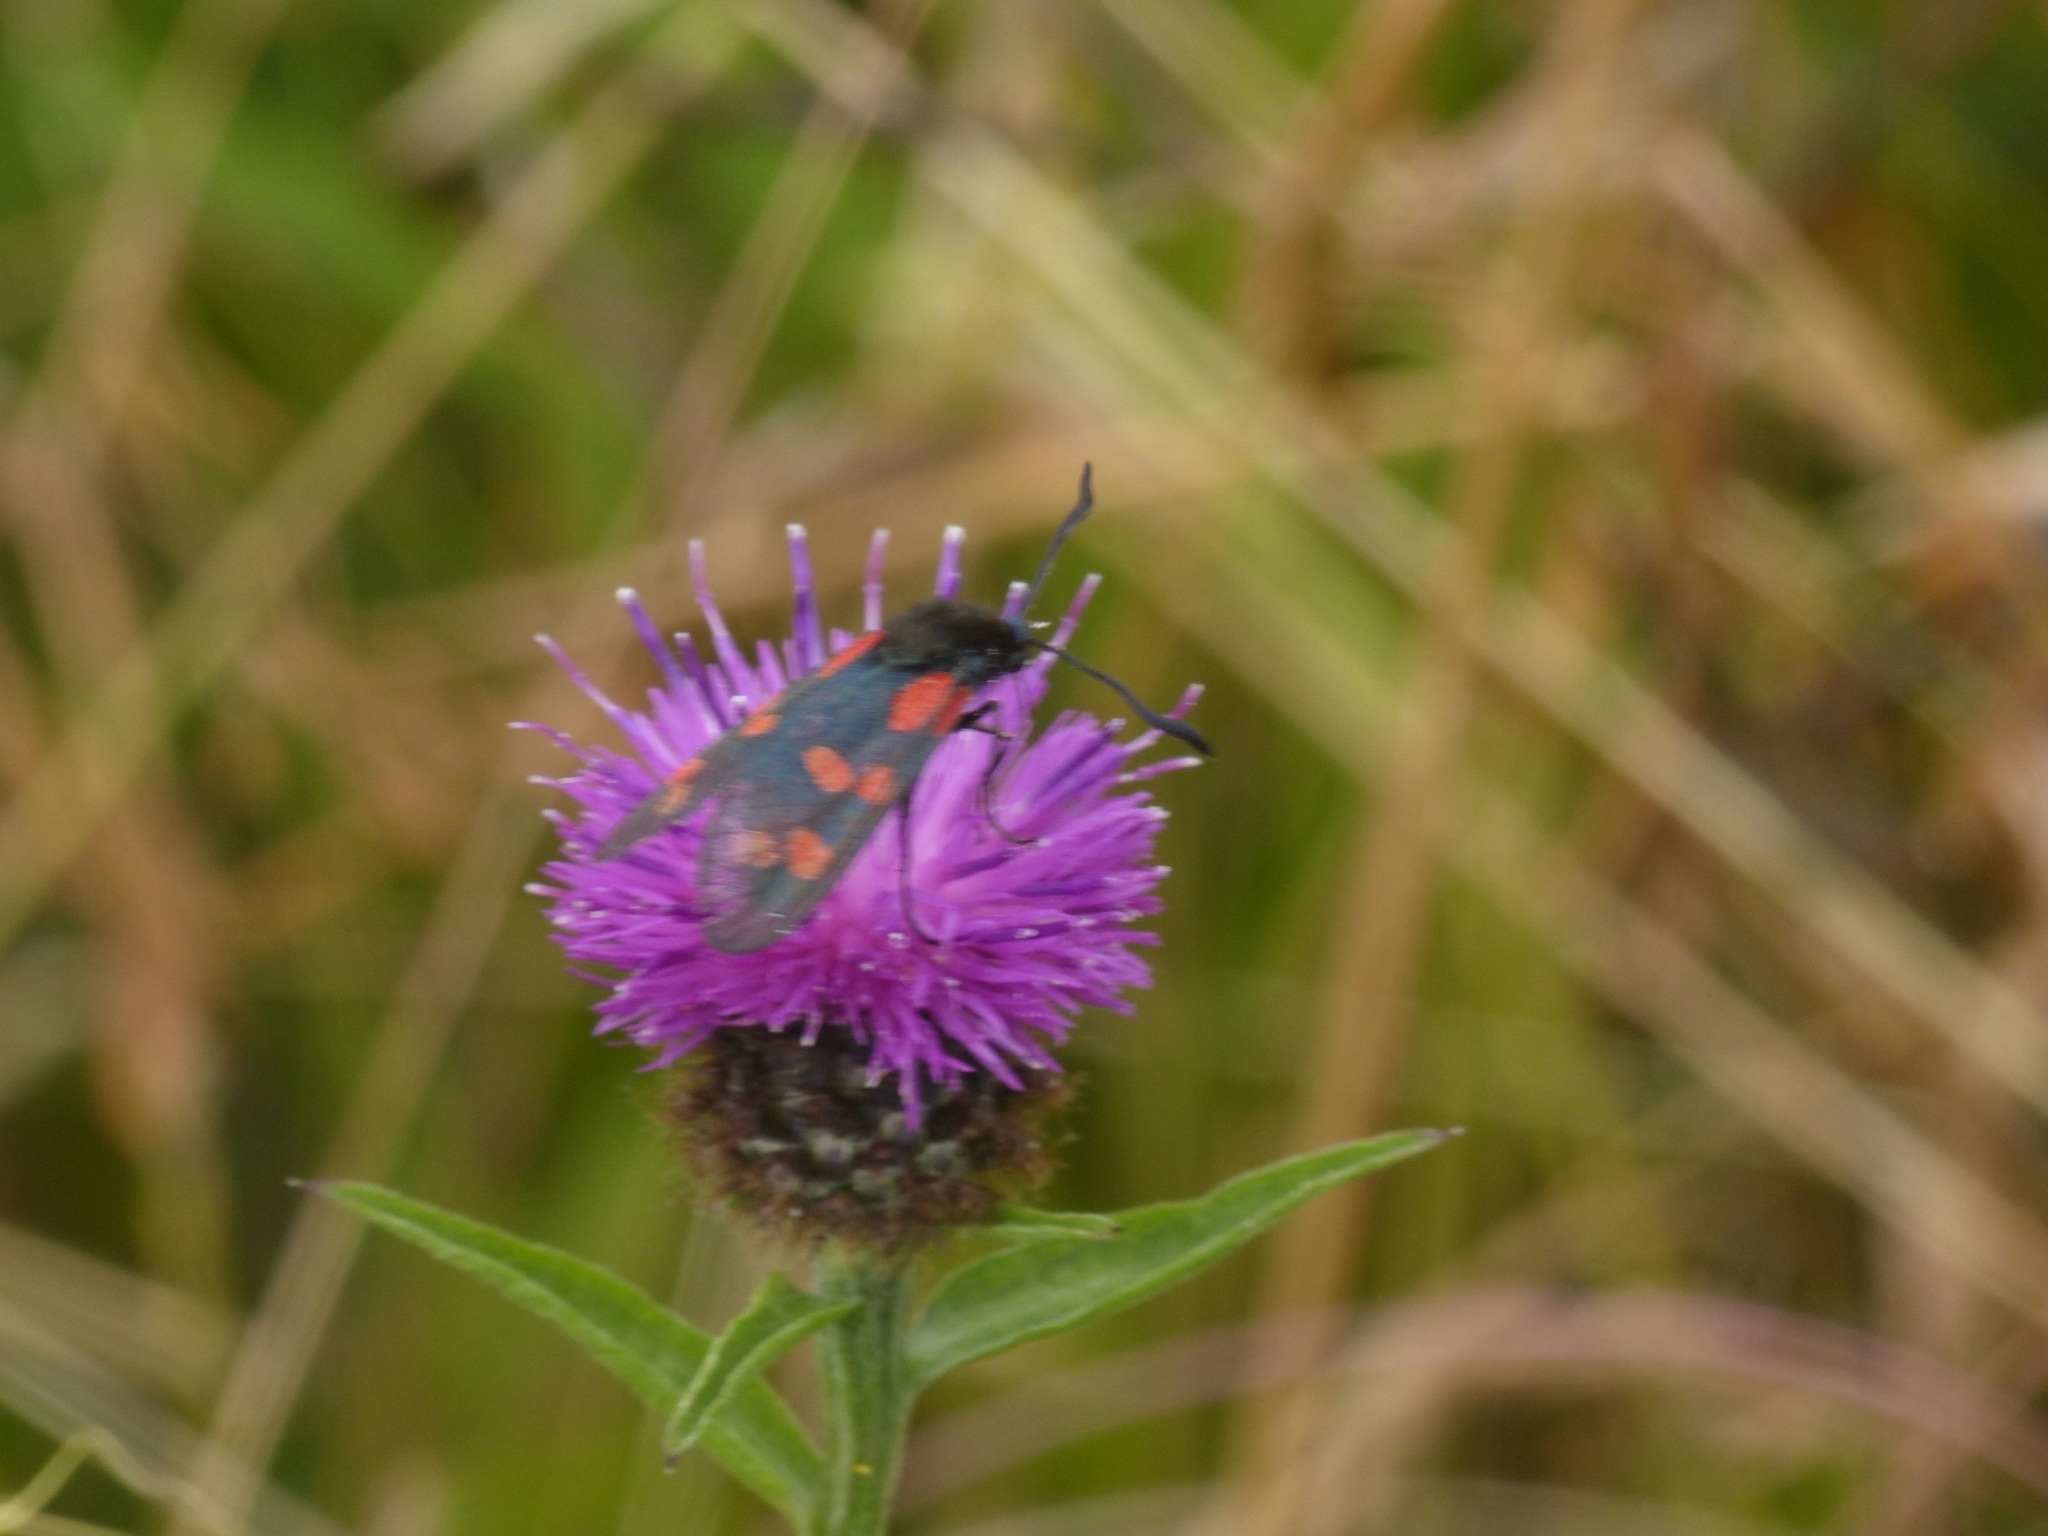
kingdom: Animalia
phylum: Arthropoda
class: Insecta
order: Lepidoptera
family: Zygaenidae
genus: Zygaena
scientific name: Zygaena filipendulae
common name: Six-spot burnet
